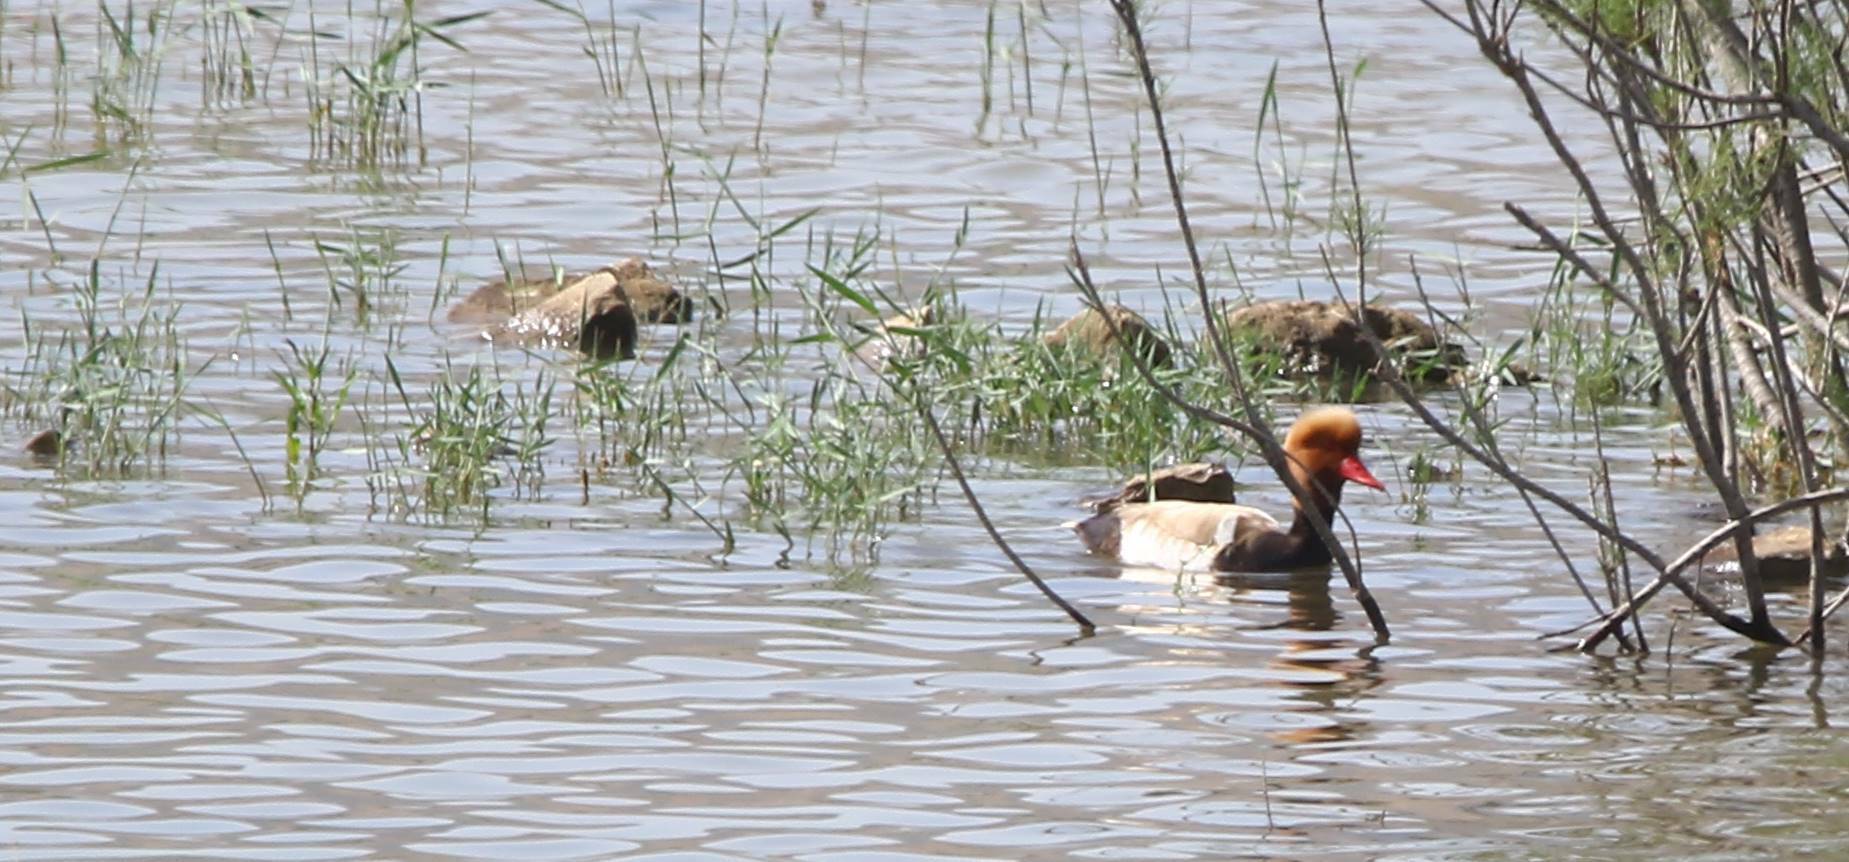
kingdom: Animalia
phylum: Chordata
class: Aves
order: Anseriformes
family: Anatidae
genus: Netta
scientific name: Netta rufina
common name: Red-crested pochard
